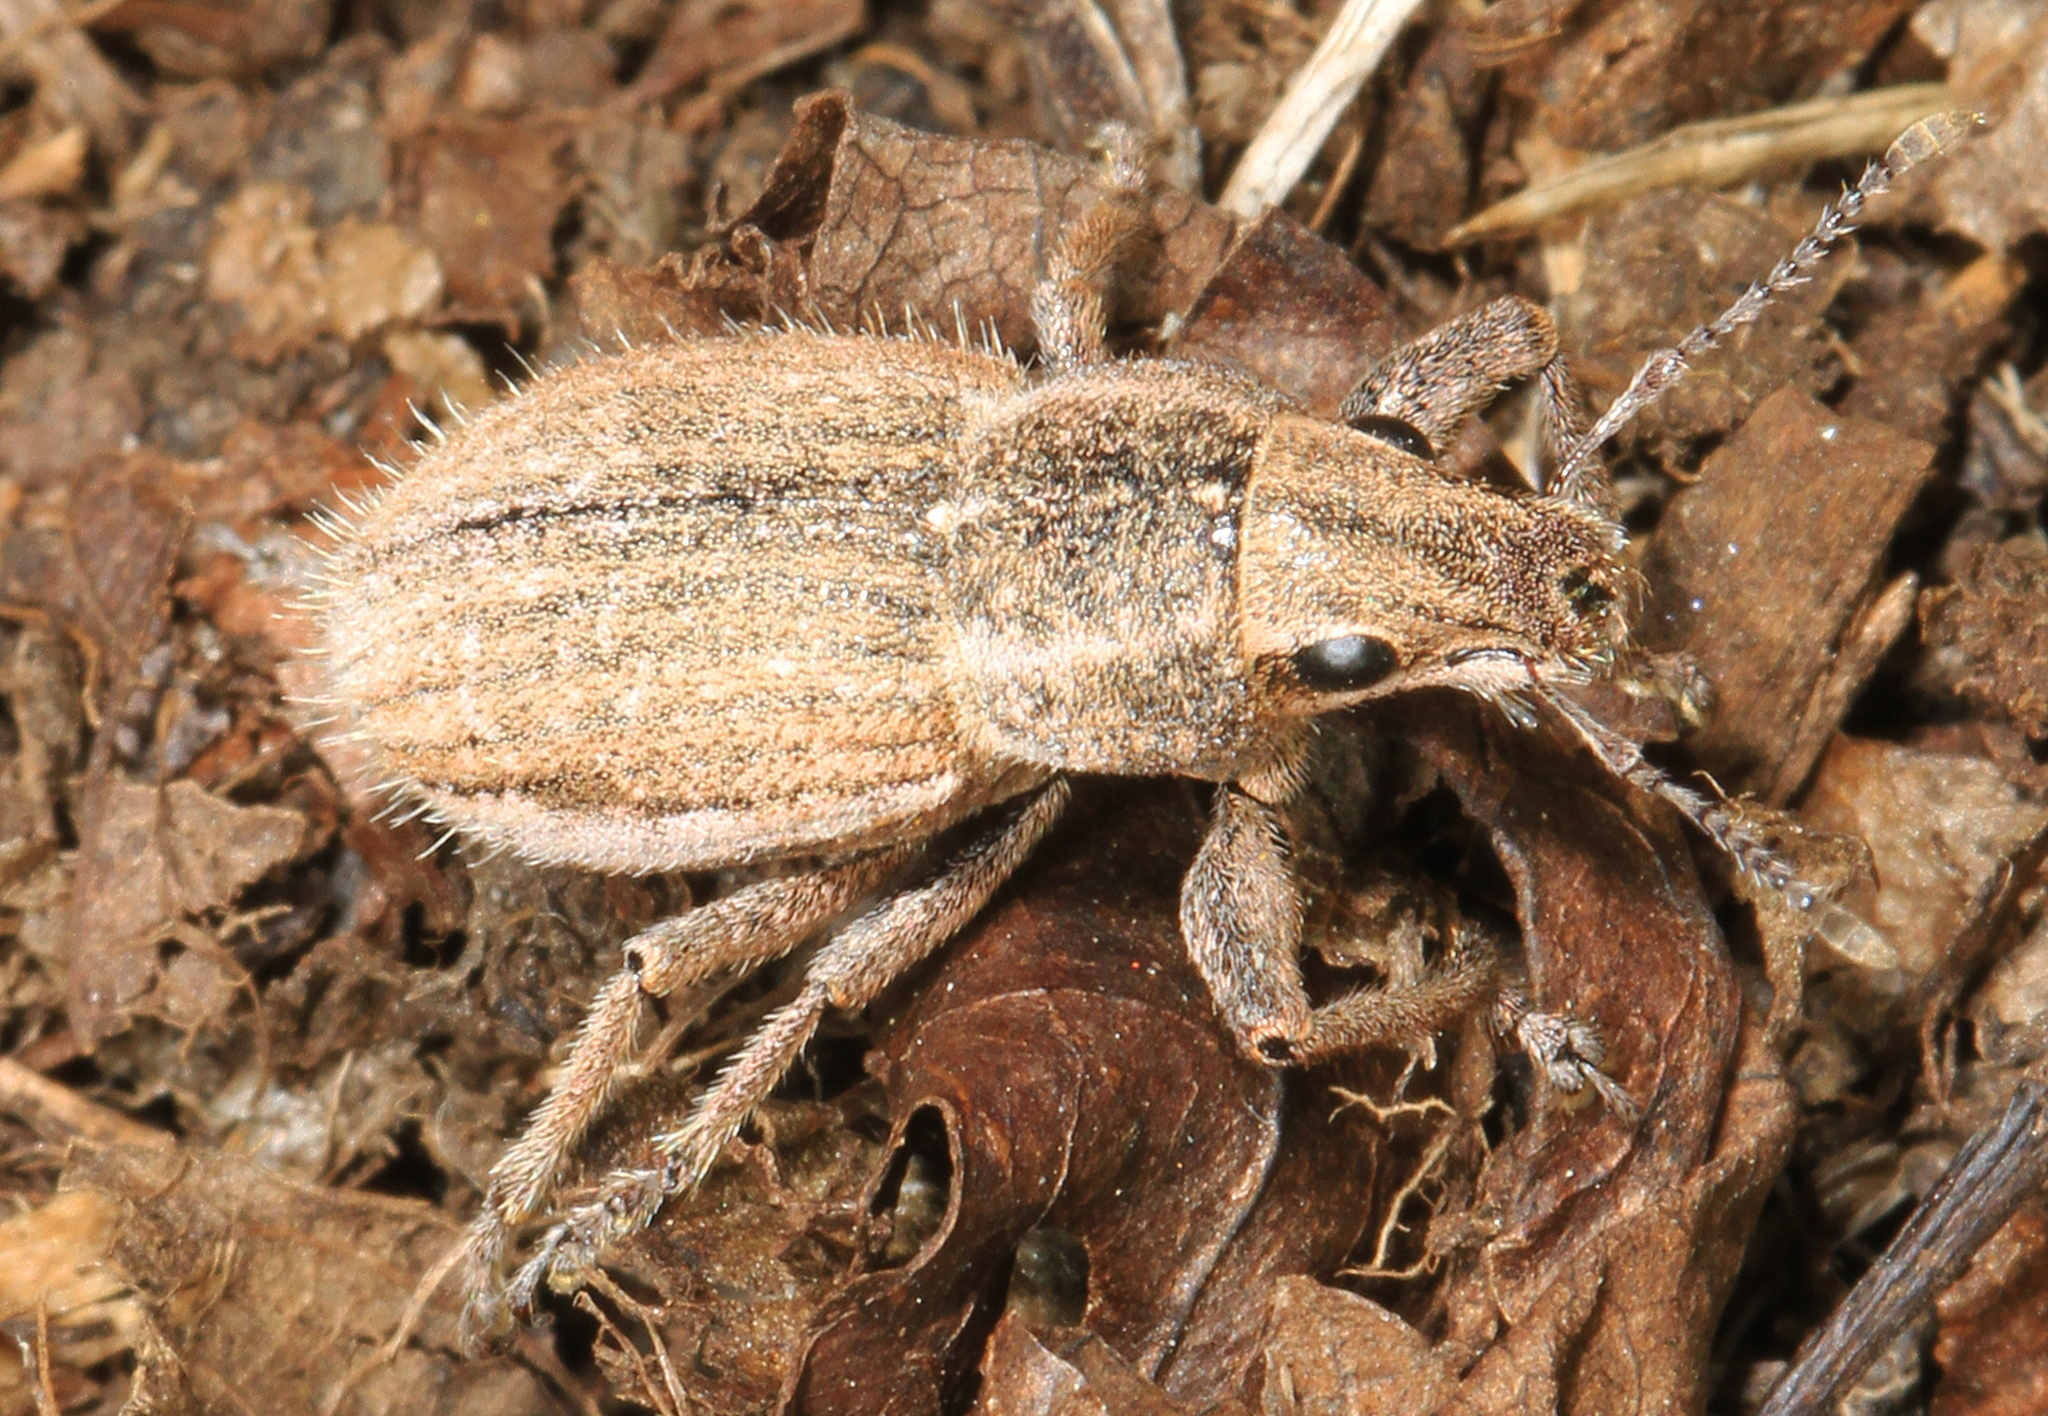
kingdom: Animalia
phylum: Arthropoda
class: Insecta
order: Coleoptera
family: Curculionidae
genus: Naupactus
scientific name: Naupactus leucoloma
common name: Whitefringed beetle
